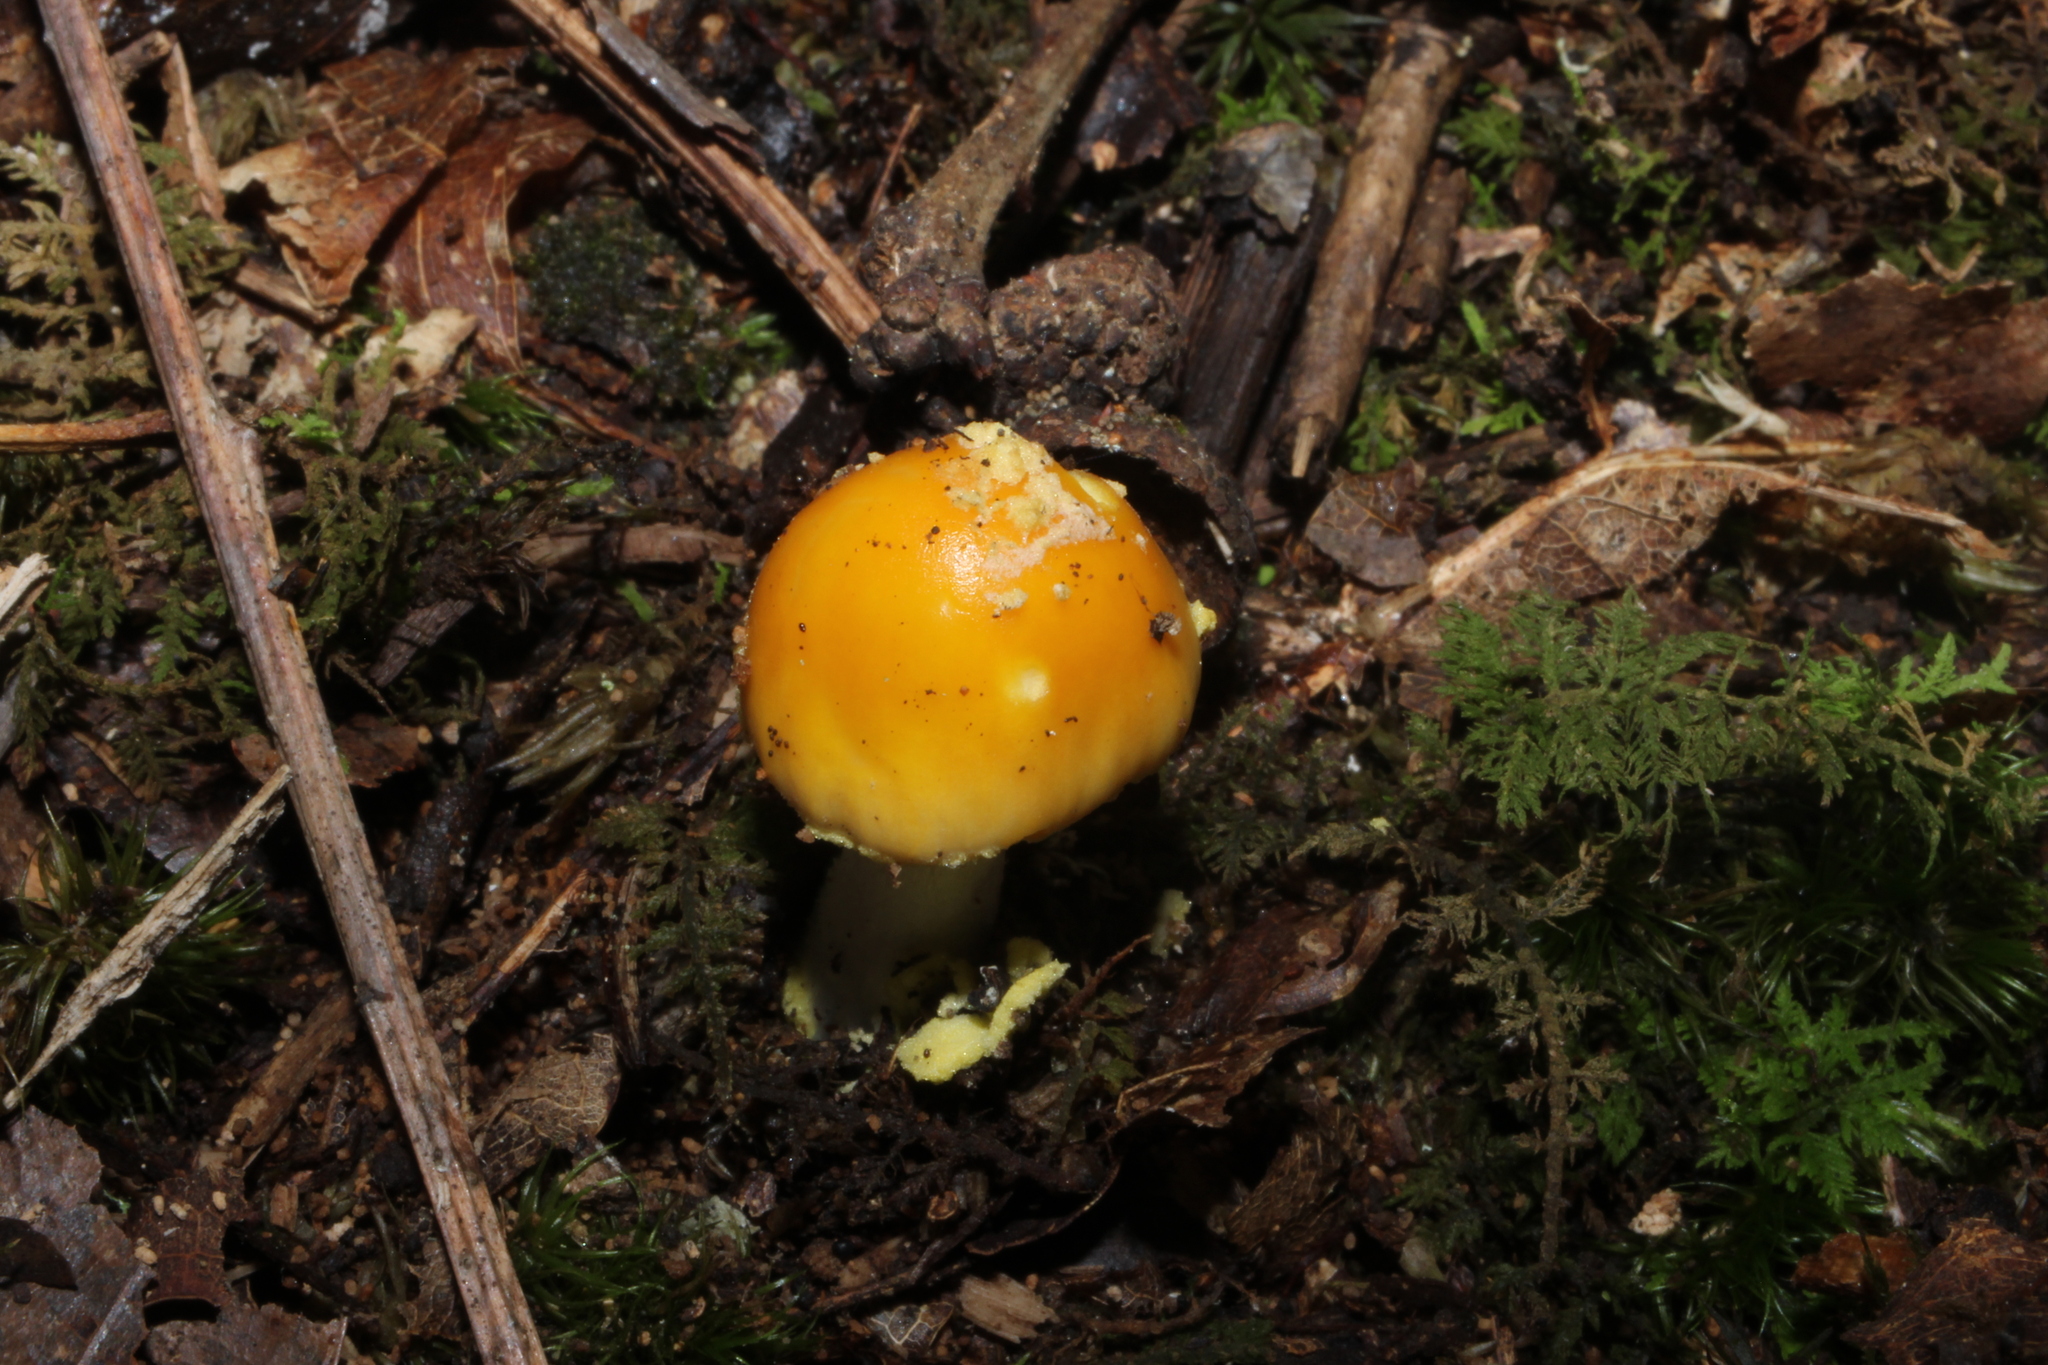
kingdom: Fungi
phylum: Basidiomycota
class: Agaricomycetes
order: Agaricales
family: Amanitaceae
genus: Amanita
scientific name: Amanita flavoconia
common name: Yellow patches
